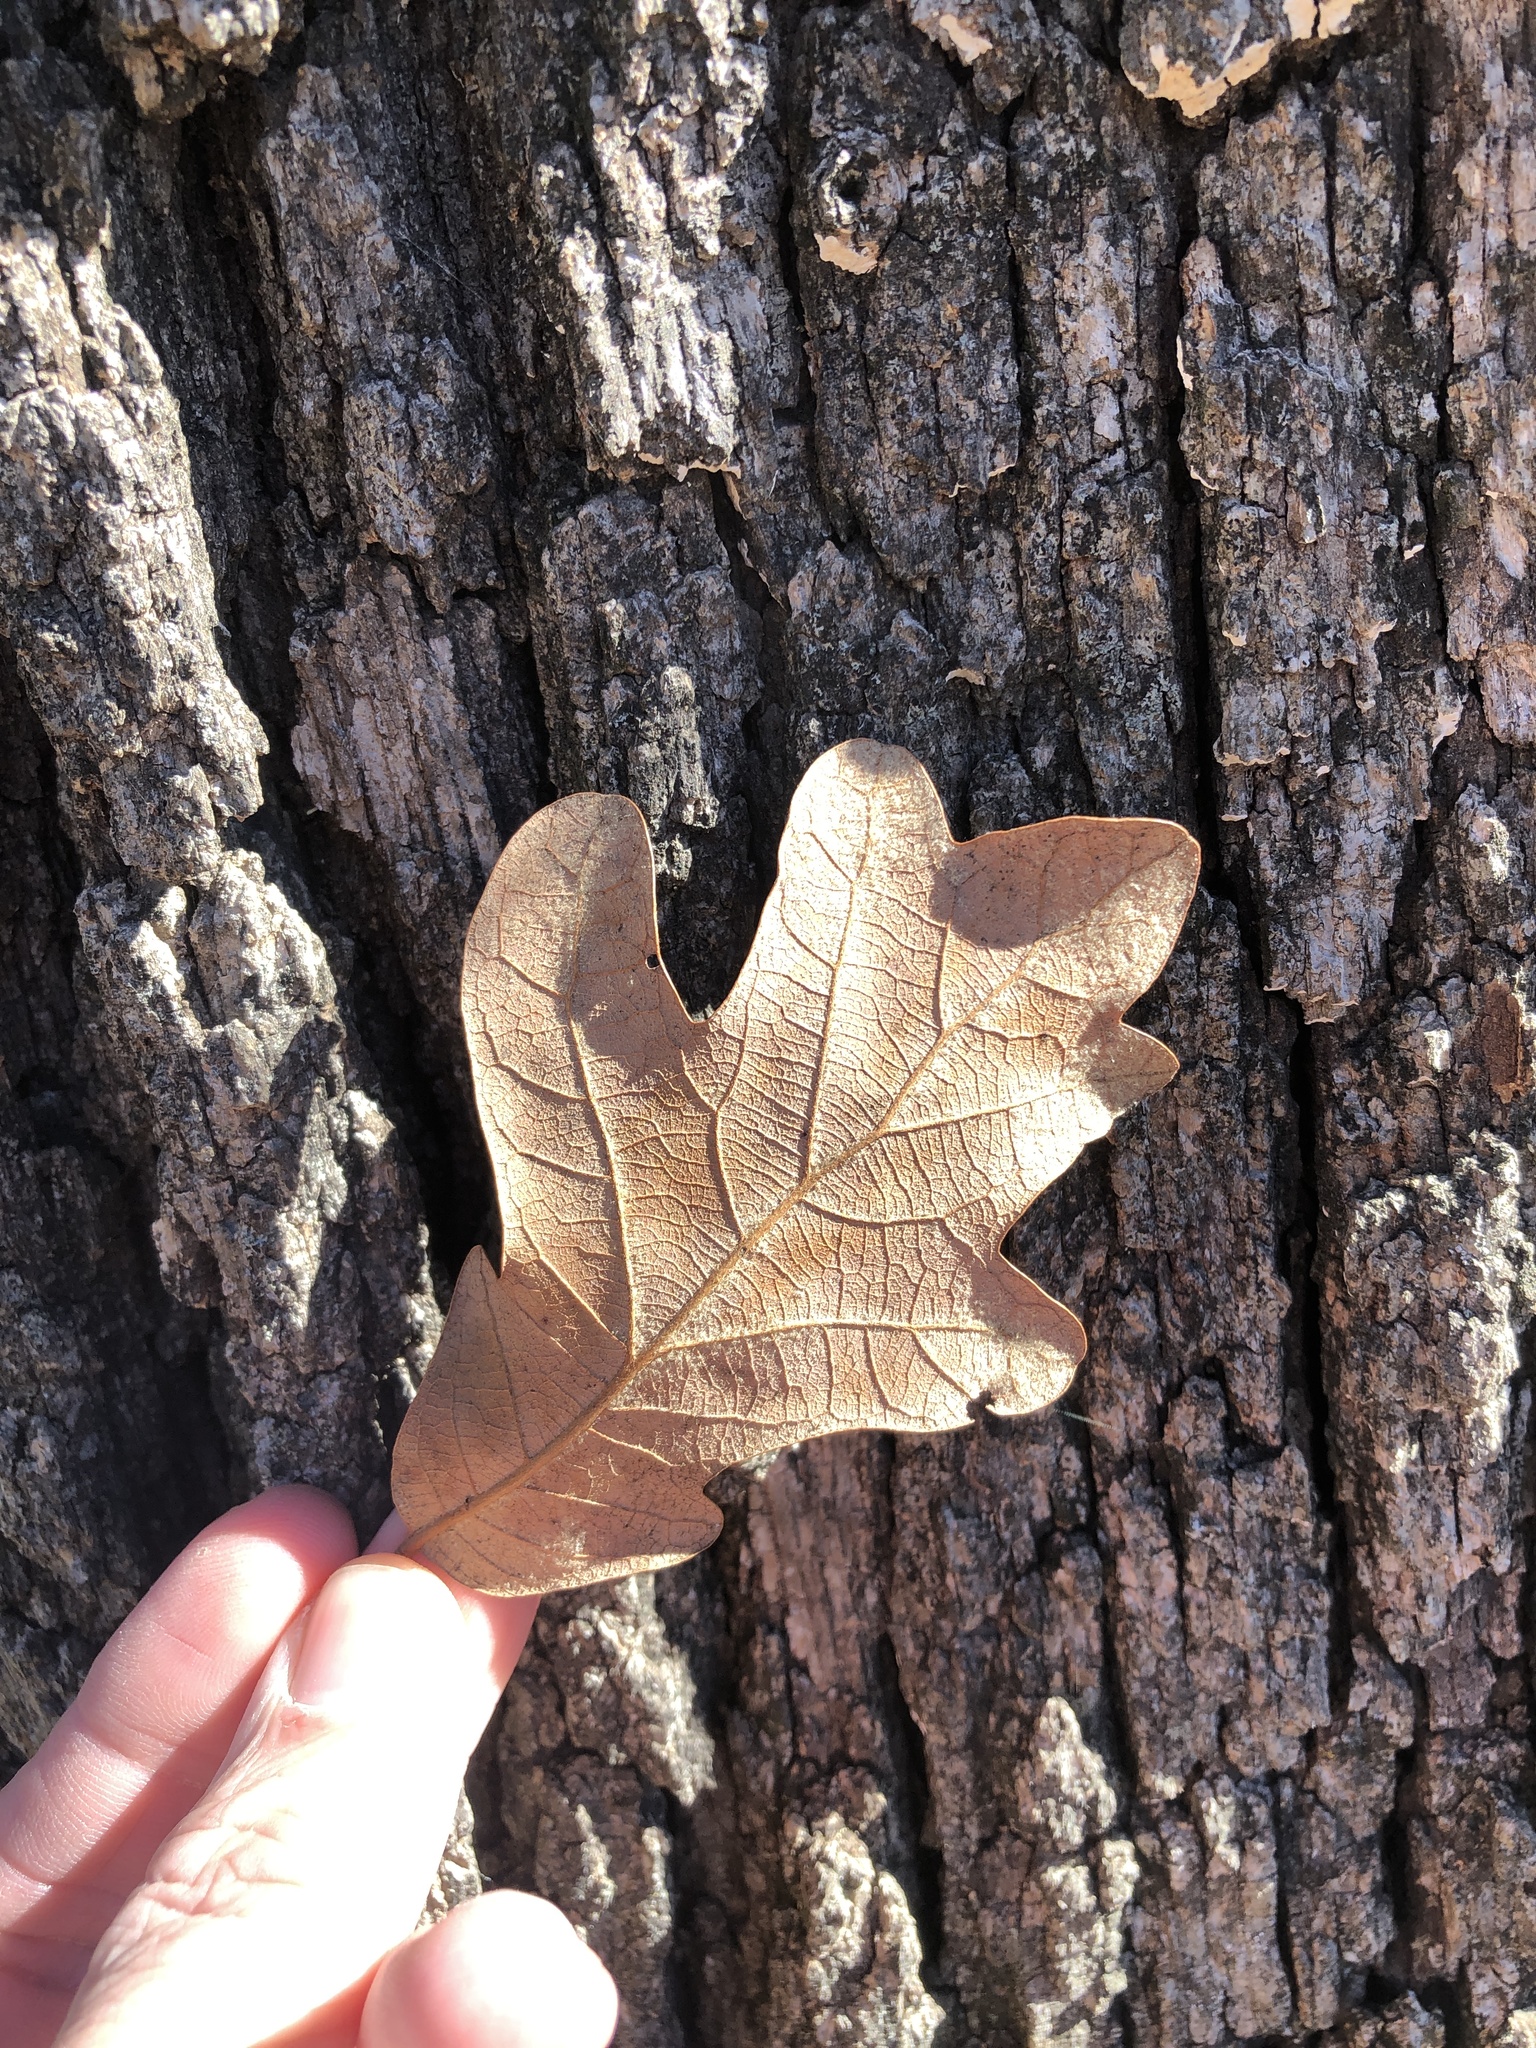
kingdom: Plantae
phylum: Tracheophyta
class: Magnoliopsida
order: Fagales
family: Fagaceae
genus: Quercus
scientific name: Quercus stellata
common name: Post oak
